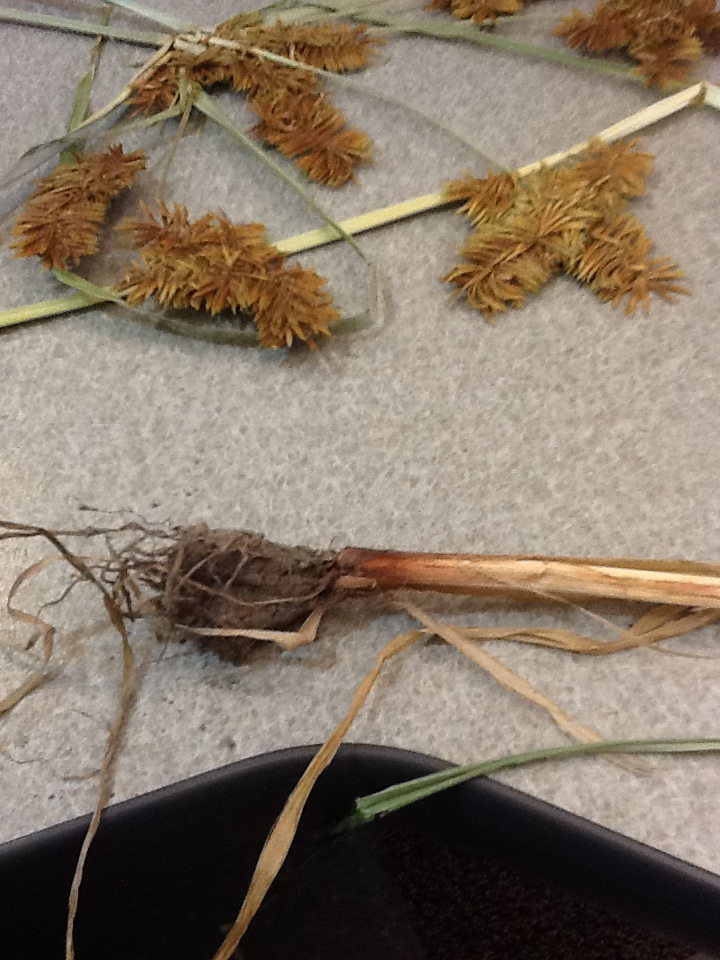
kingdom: Plantae
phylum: Tracheophyta
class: Liliopsida
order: Poales
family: Cyperaceae
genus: Cyperus
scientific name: Cyperus erythrorhizos
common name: Red-root flat sedge
